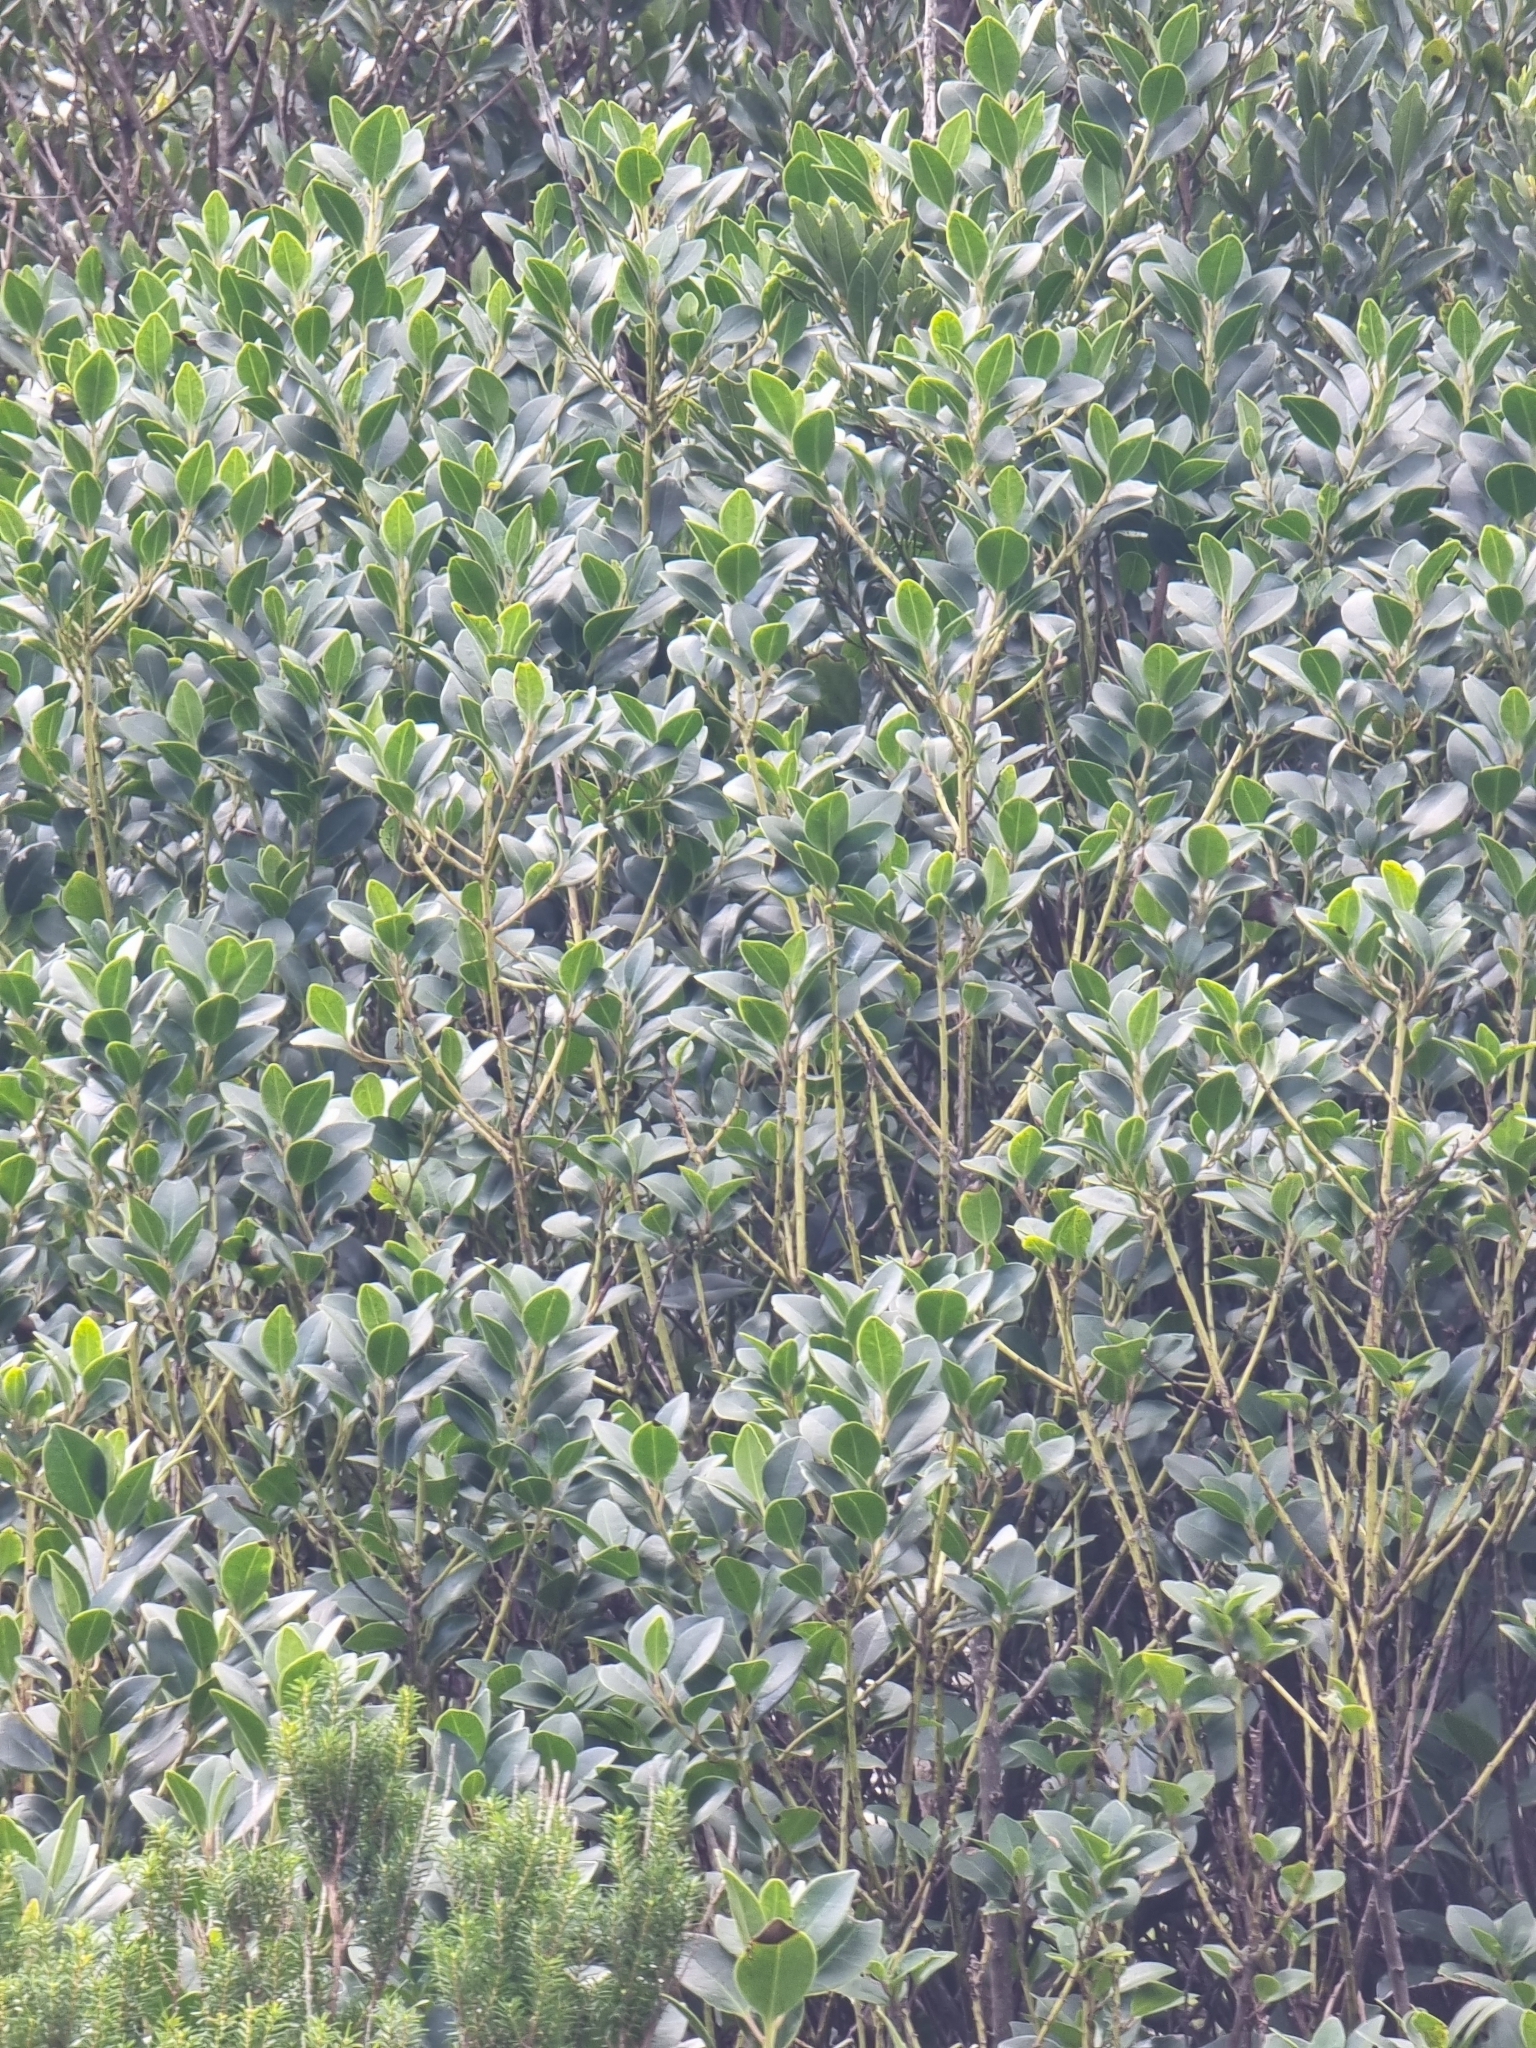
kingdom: Plantae
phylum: Tracheophyta
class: Magnoliopsida
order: Aquifoliales
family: Aquifoliaceae
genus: Ilex
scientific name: Ilex canariensis
